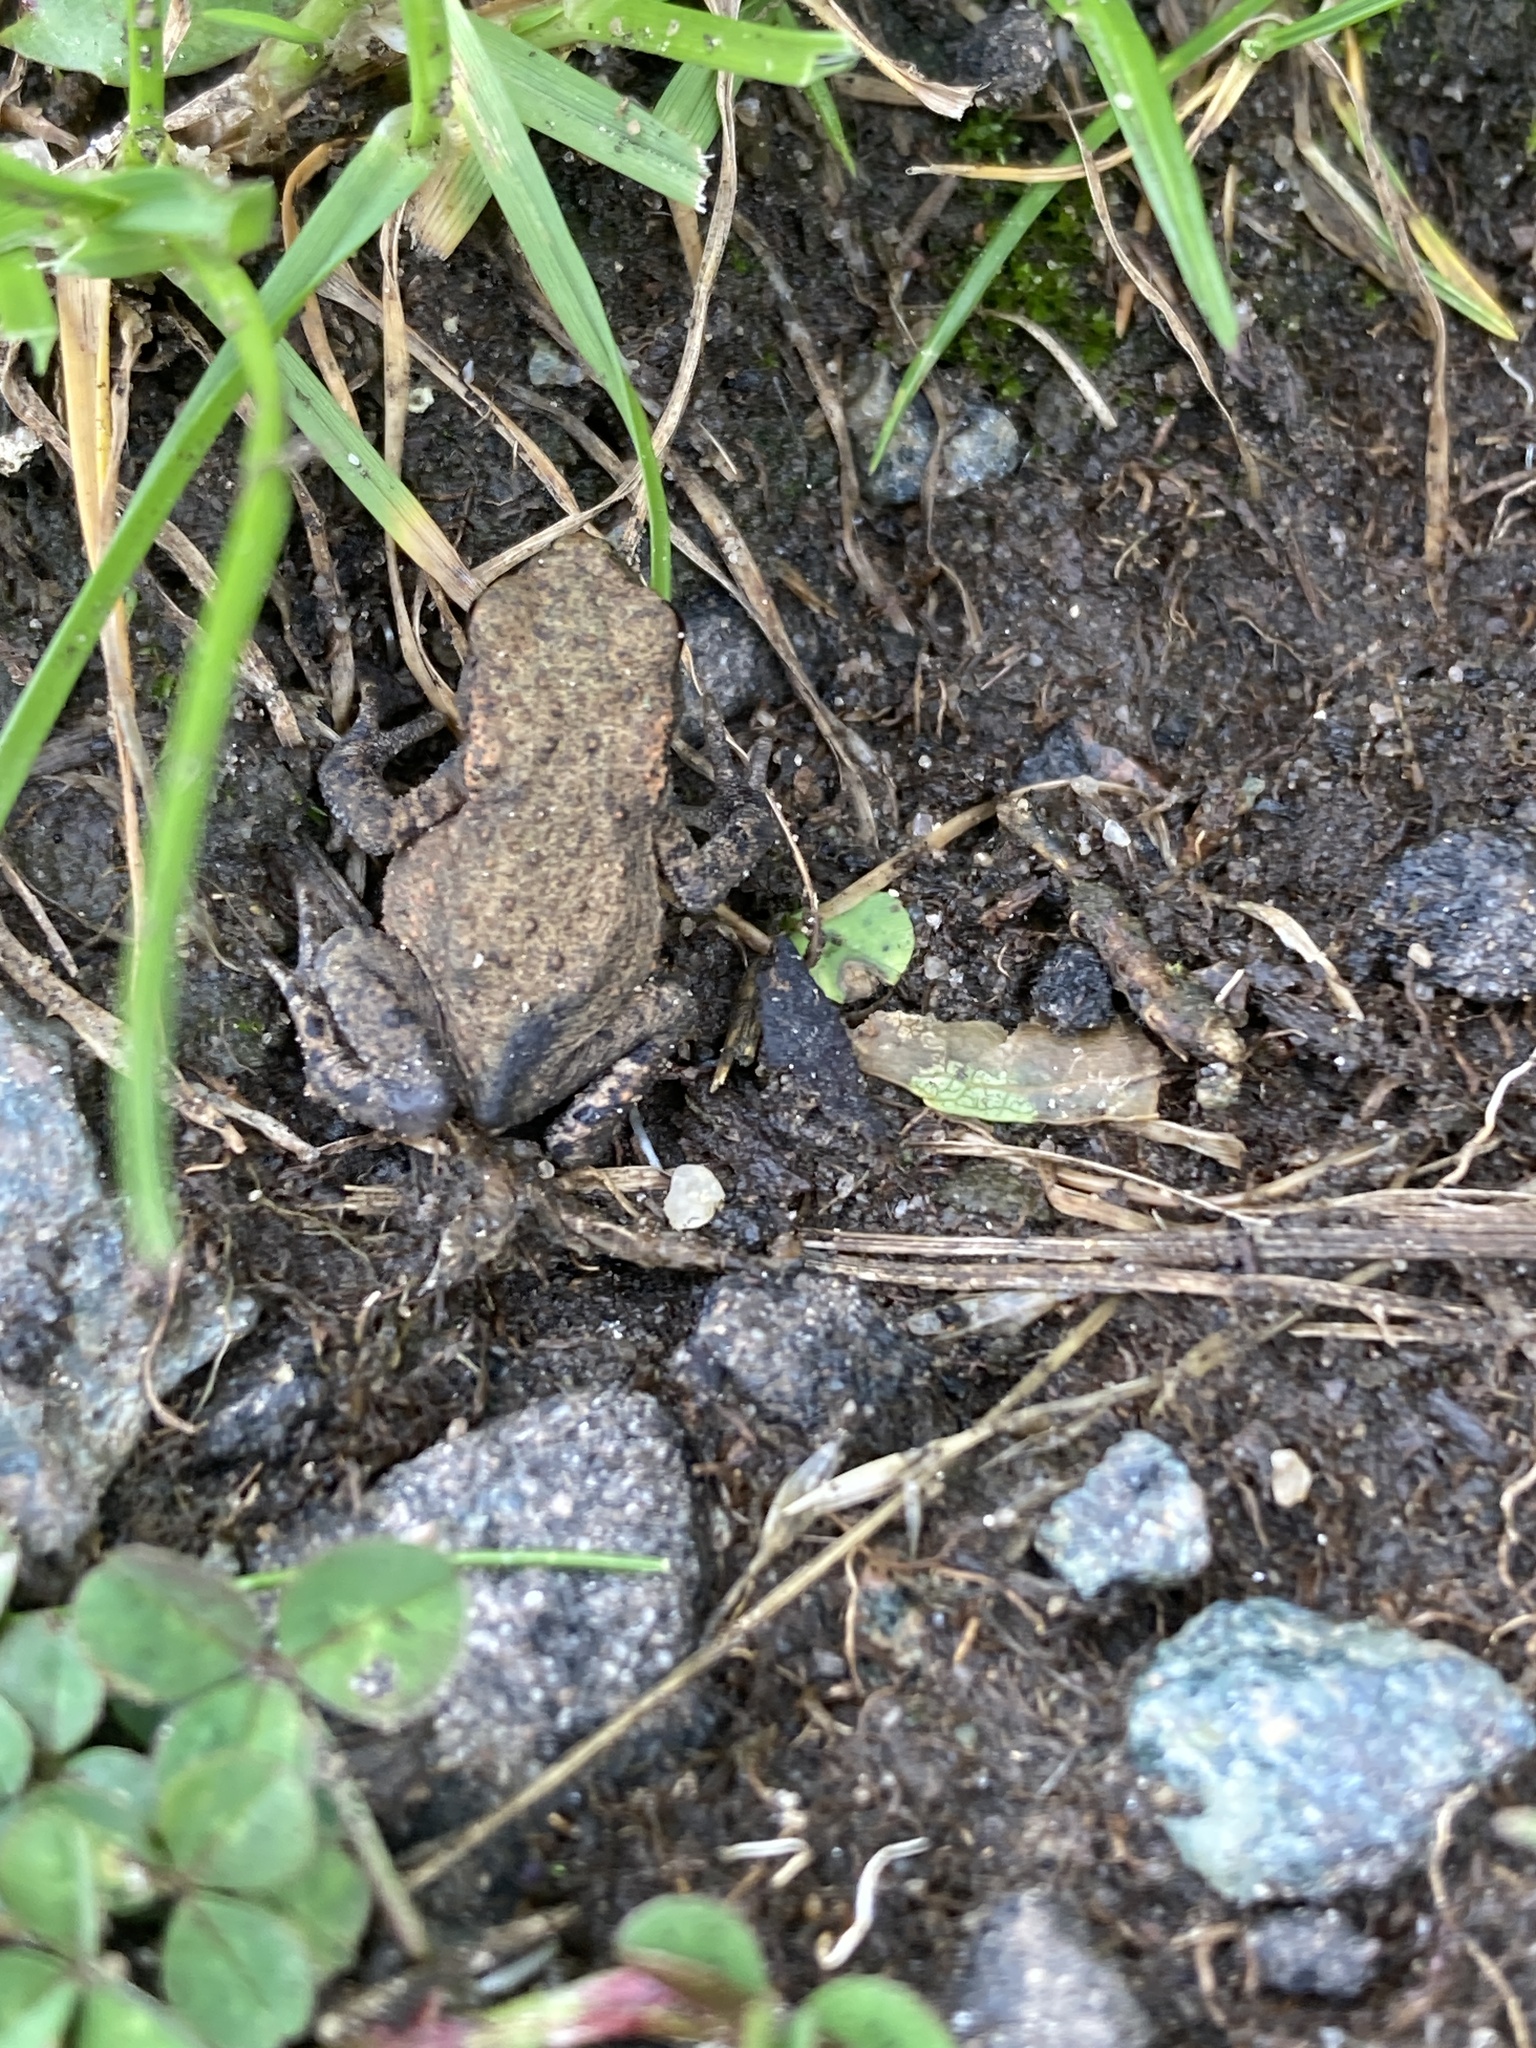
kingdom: Animalia
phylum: Chordata
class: Amphibia
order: Anura
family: Bufonidae
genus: Bufo
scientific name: Bufo bufo
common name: Common toad
